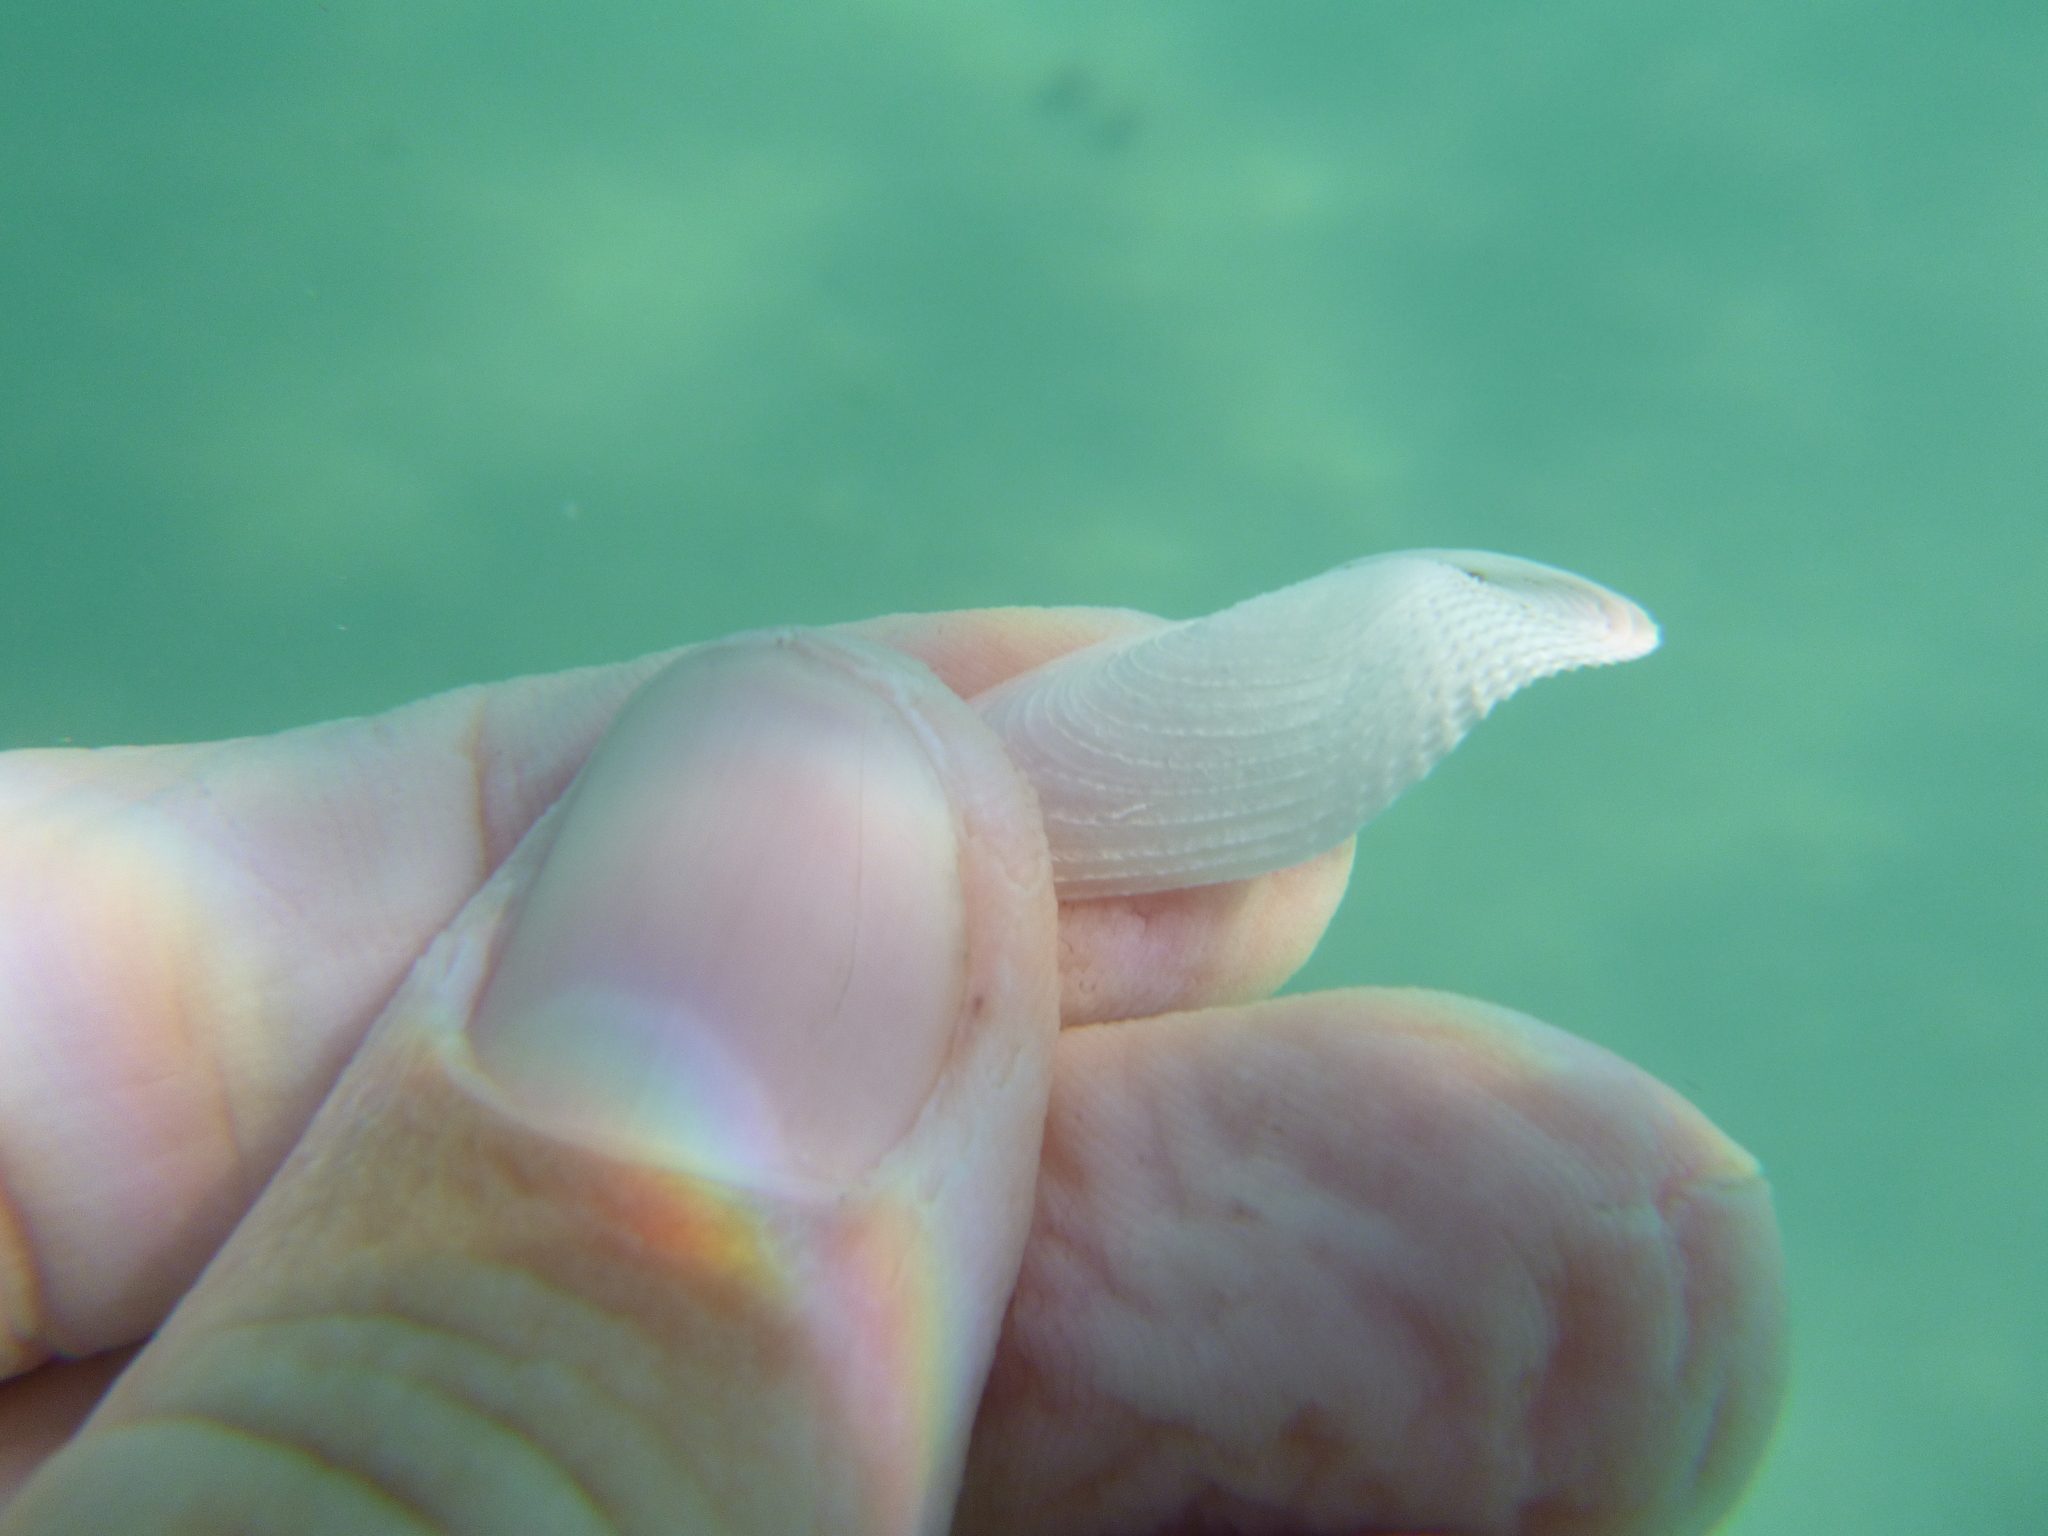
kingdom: Animalia
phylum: Mollusca
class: Bivalvia
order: Myida
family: Pholadidae
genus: Barnea
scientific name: Barnea similis
